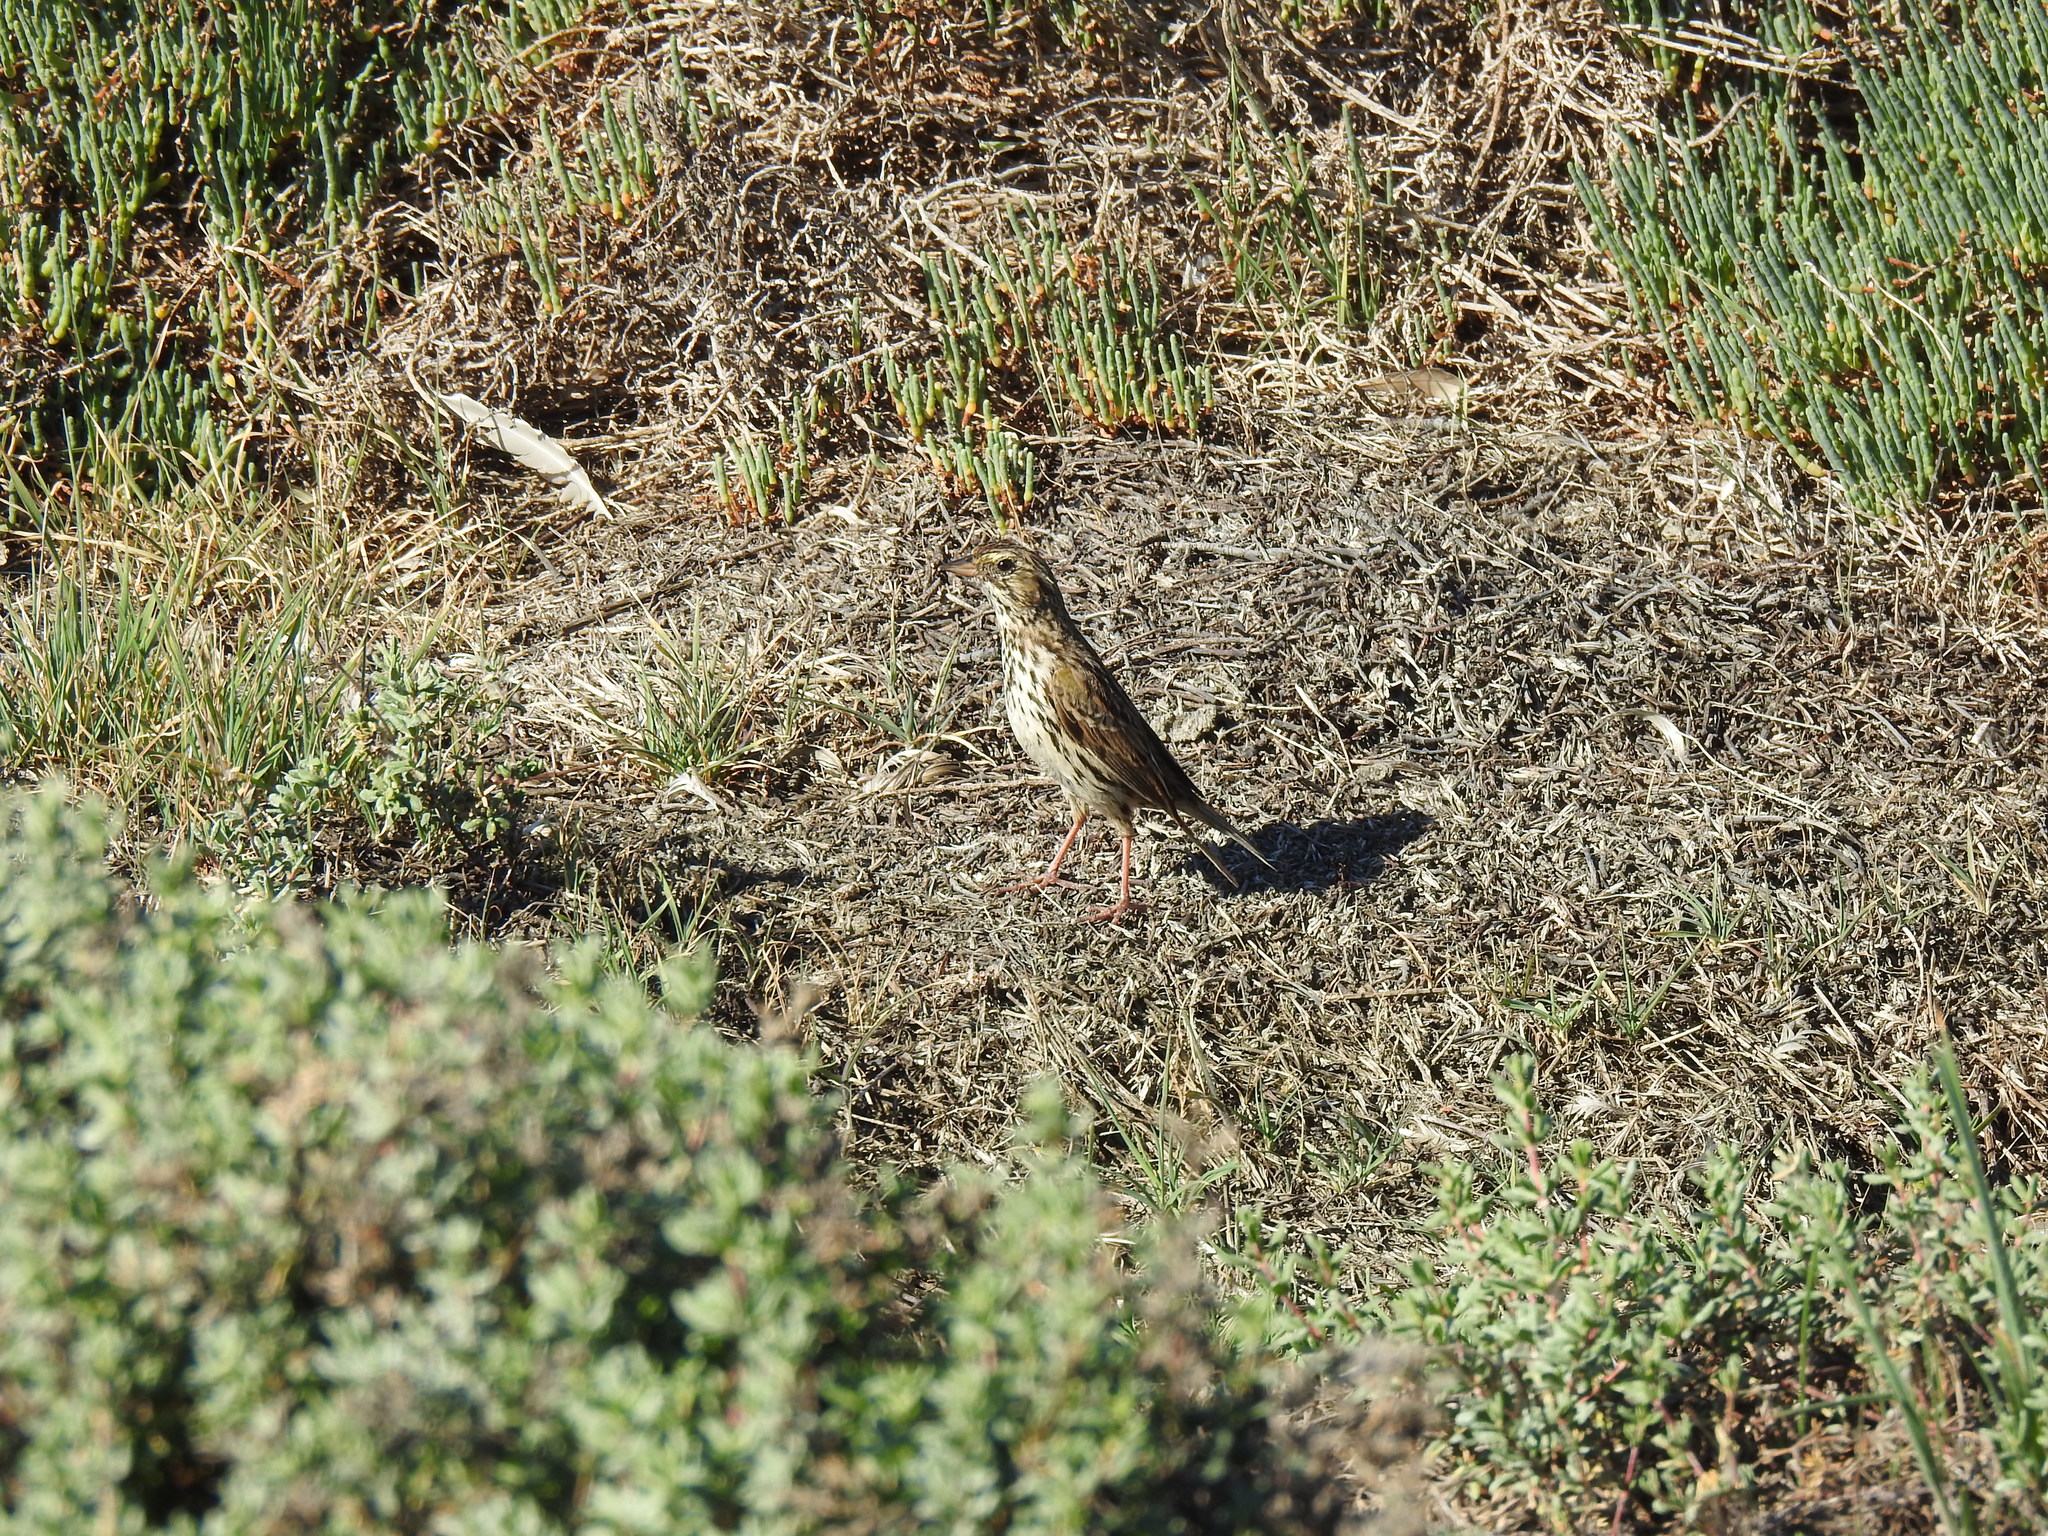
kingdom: Animalia
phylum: Chordata
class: Aves
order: Passeriformes
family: Passerellidae
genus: Passerculus
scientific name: Passerculus sandwichensis
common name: Savannah sparrow
